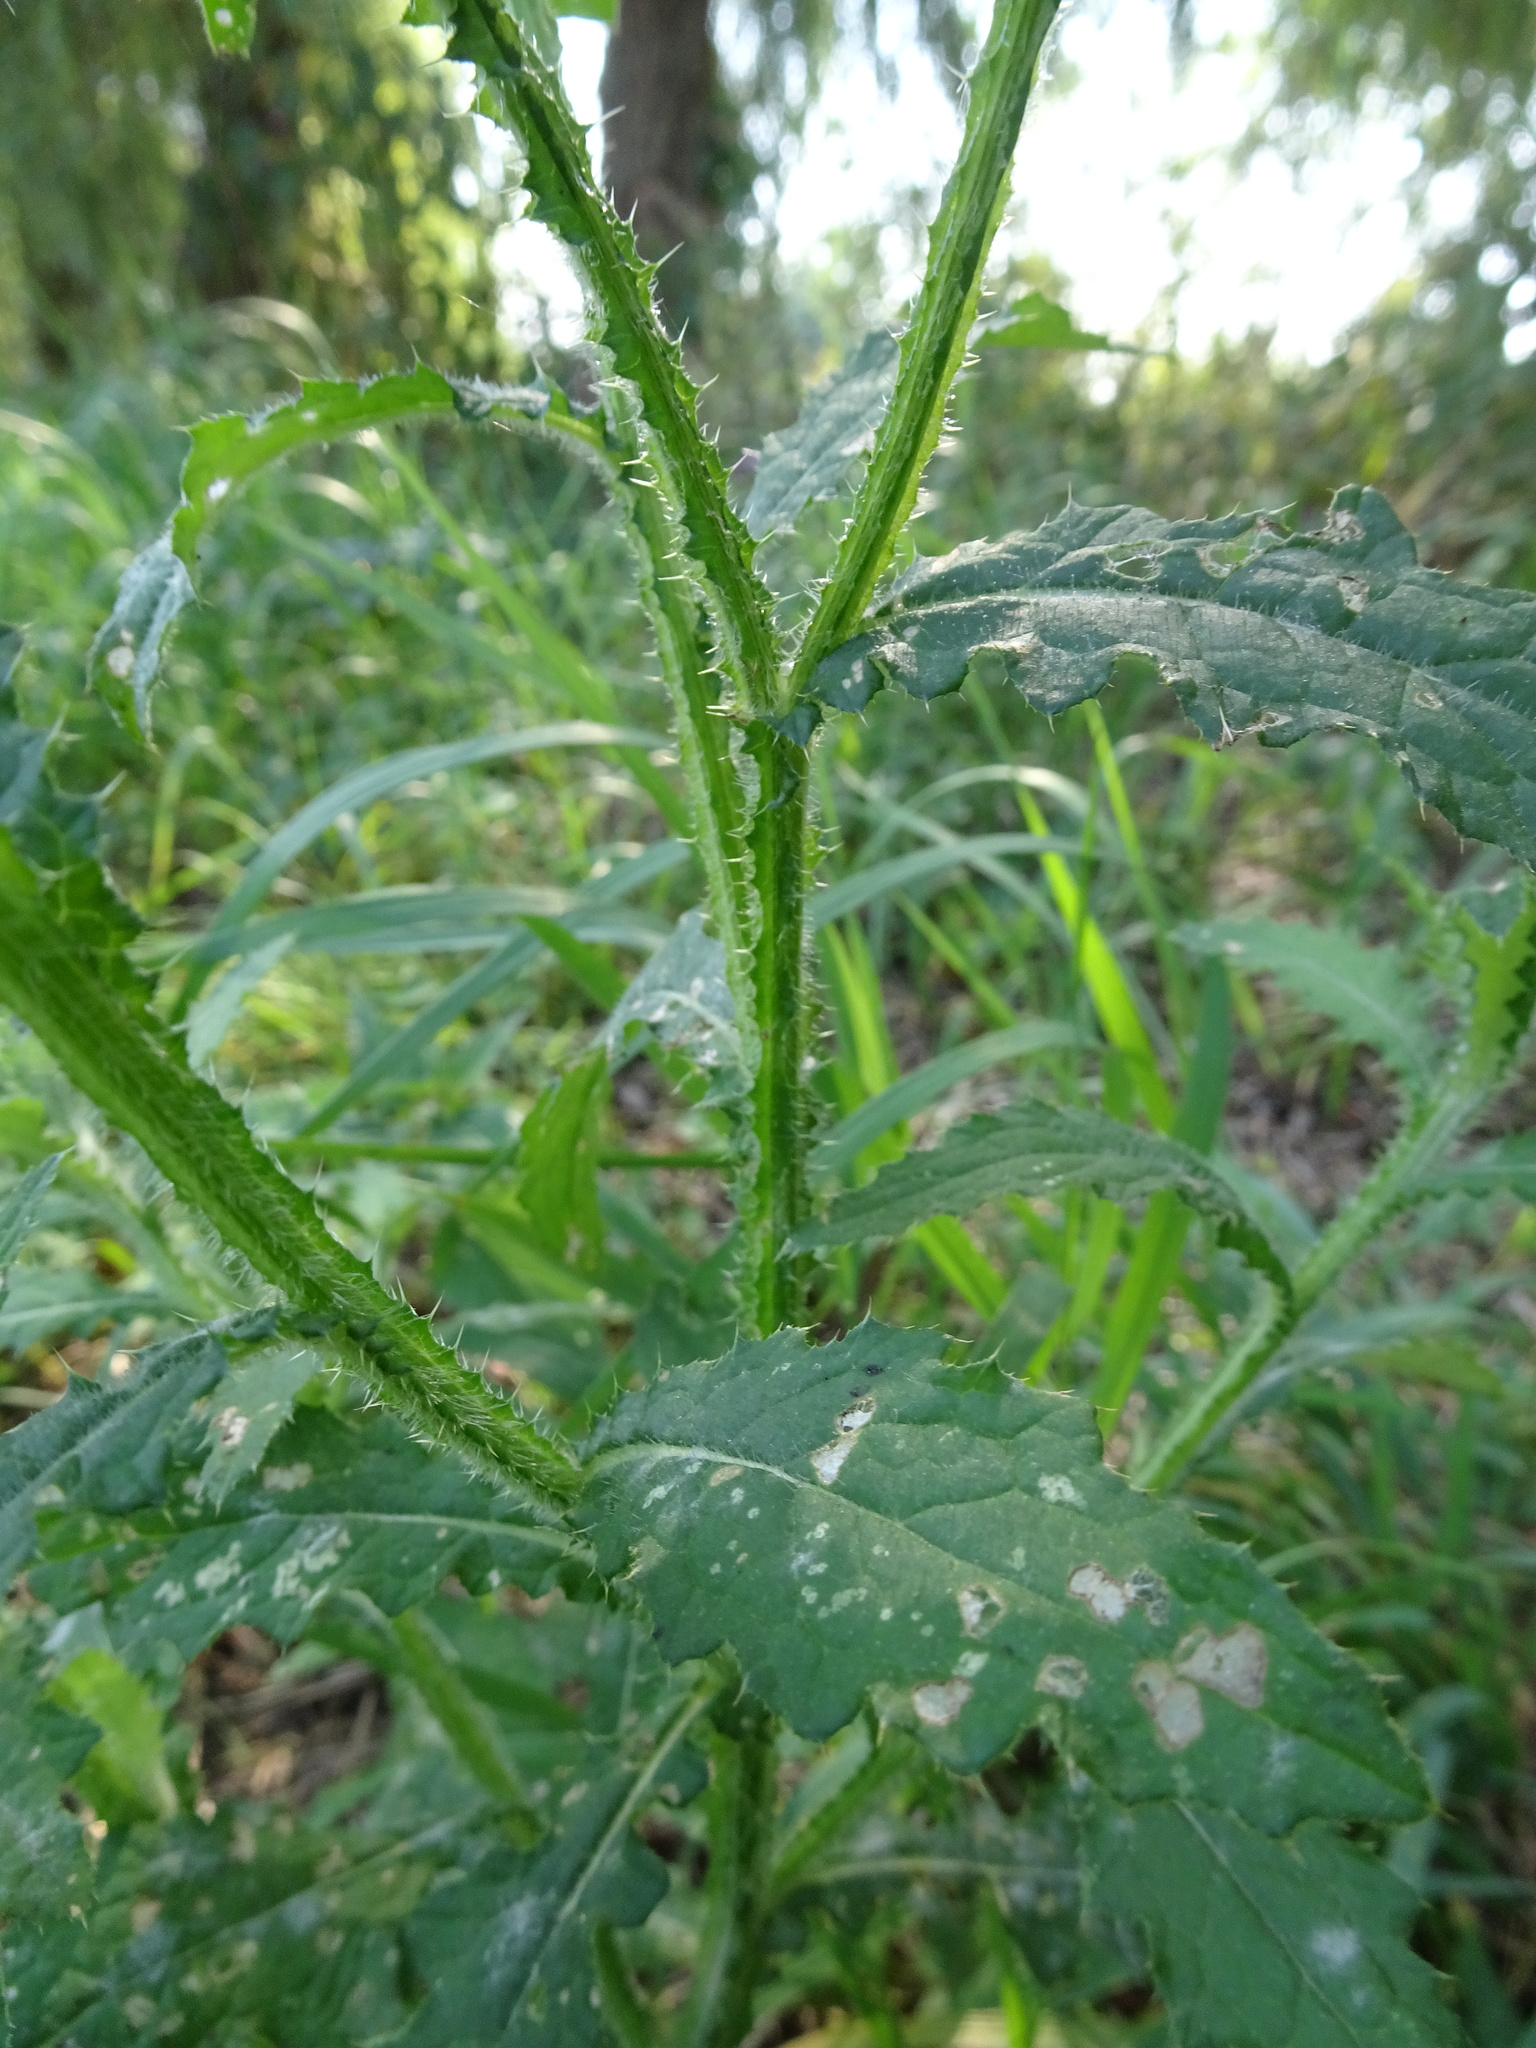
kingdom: Plantae
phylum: Tracheophyta
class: Magnoliopsida
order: Asterales
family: Asteraceae
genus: Carduus
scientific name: Carduus crispus
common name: Welted thistle
